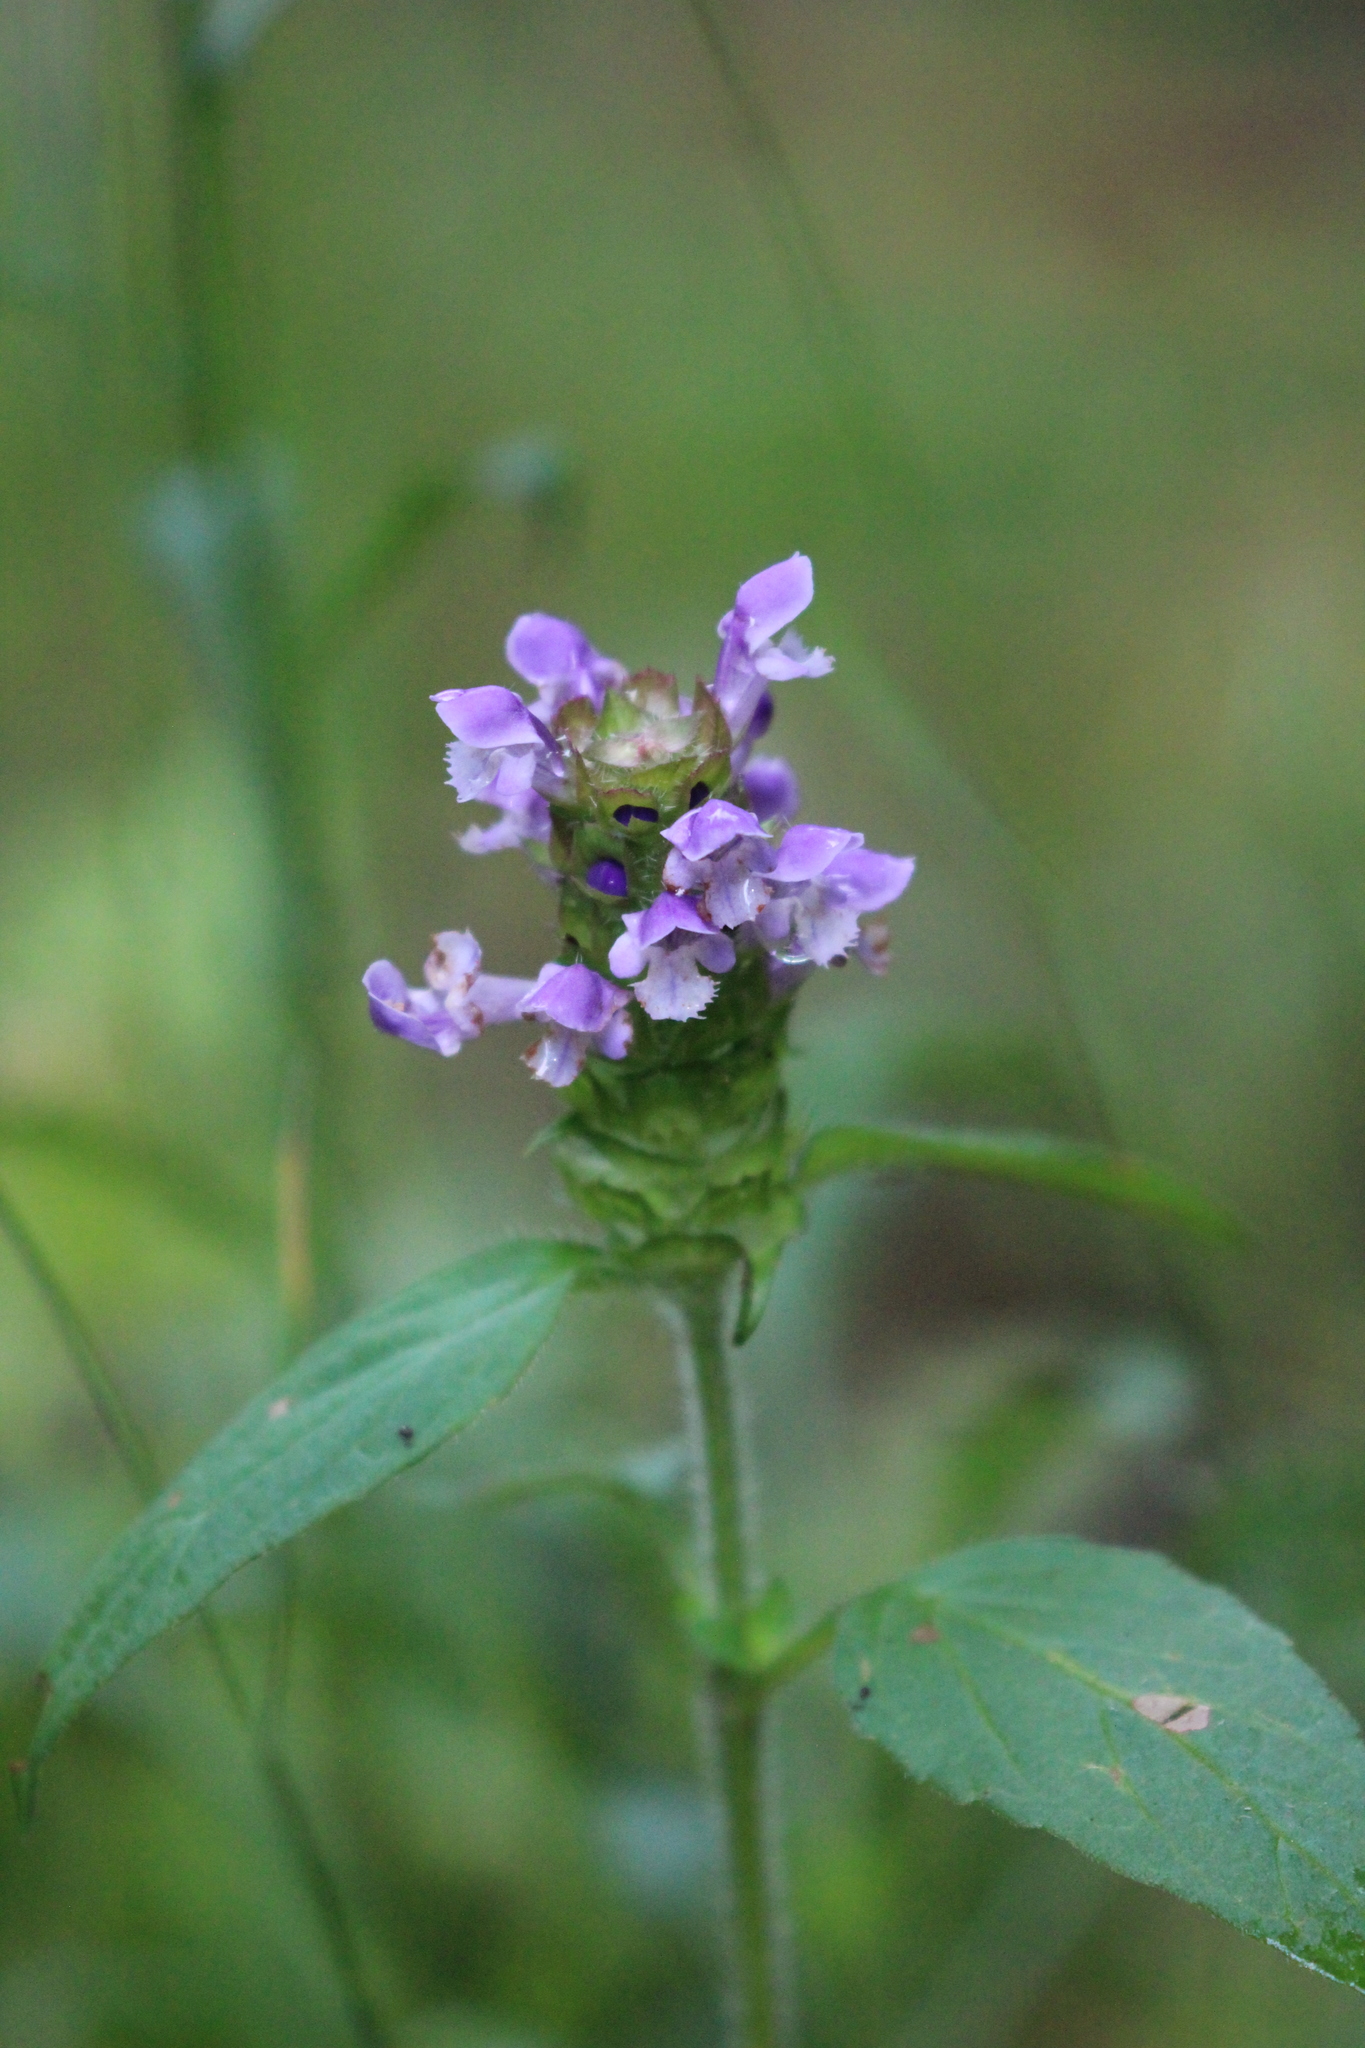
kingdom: Plantae
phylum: Tracheophyta
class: Magnoliopsida
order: Lamiales
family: Lamiaceae
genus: Prunella
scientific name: Prunella vulgaris
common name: Heal-all
